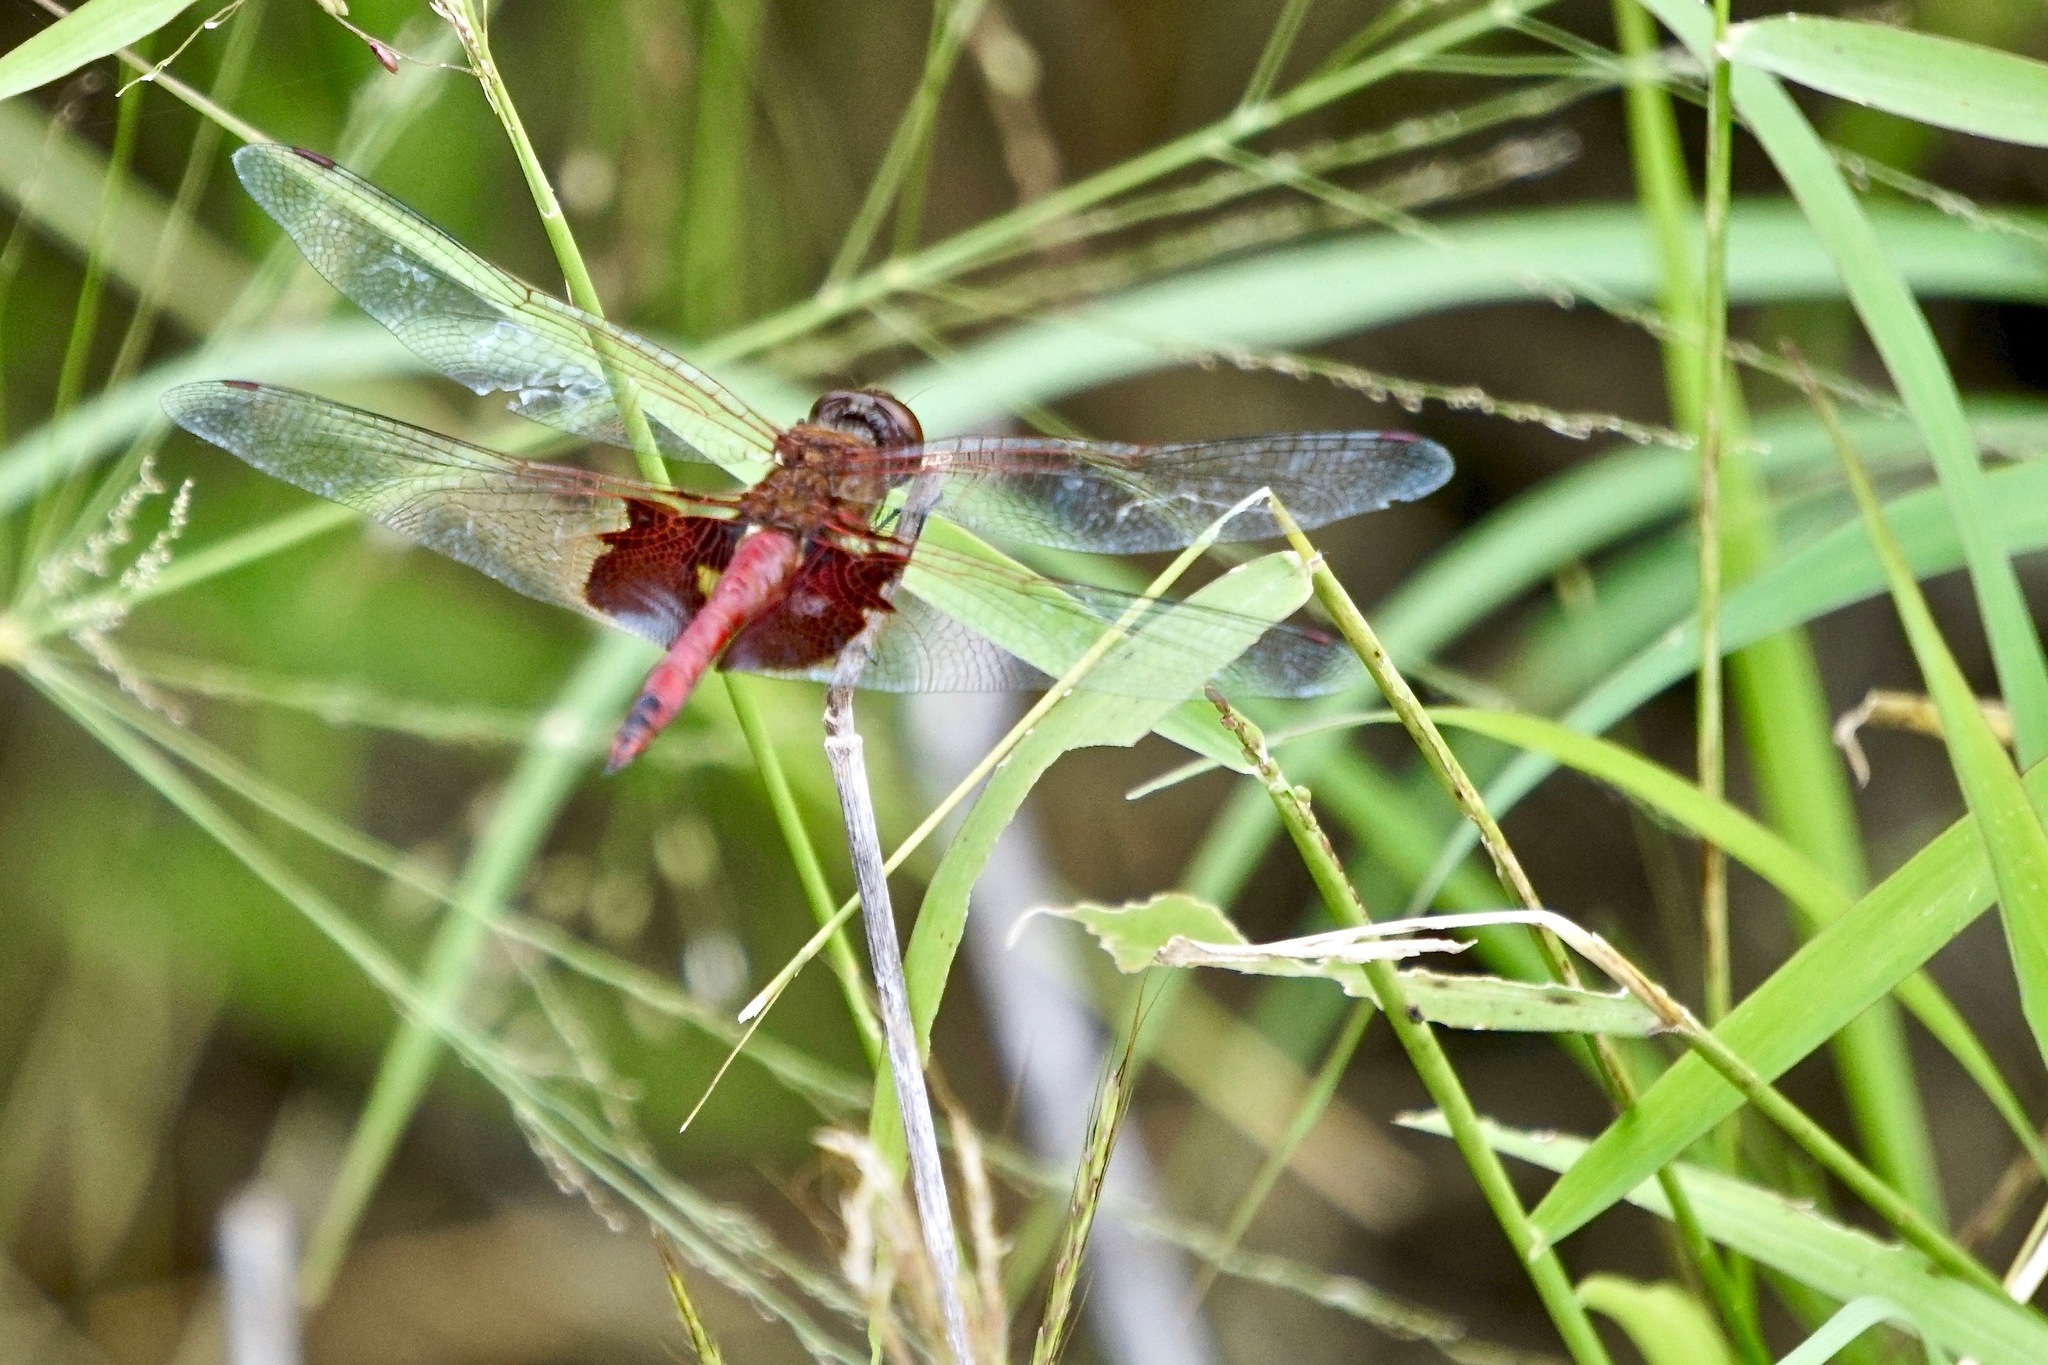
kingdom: Animalia
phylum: Arthropoda
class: Insecta
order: Odonata
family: Libellulidae
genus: Tramea
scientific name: Tramea onusta
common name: Red saddlebags
